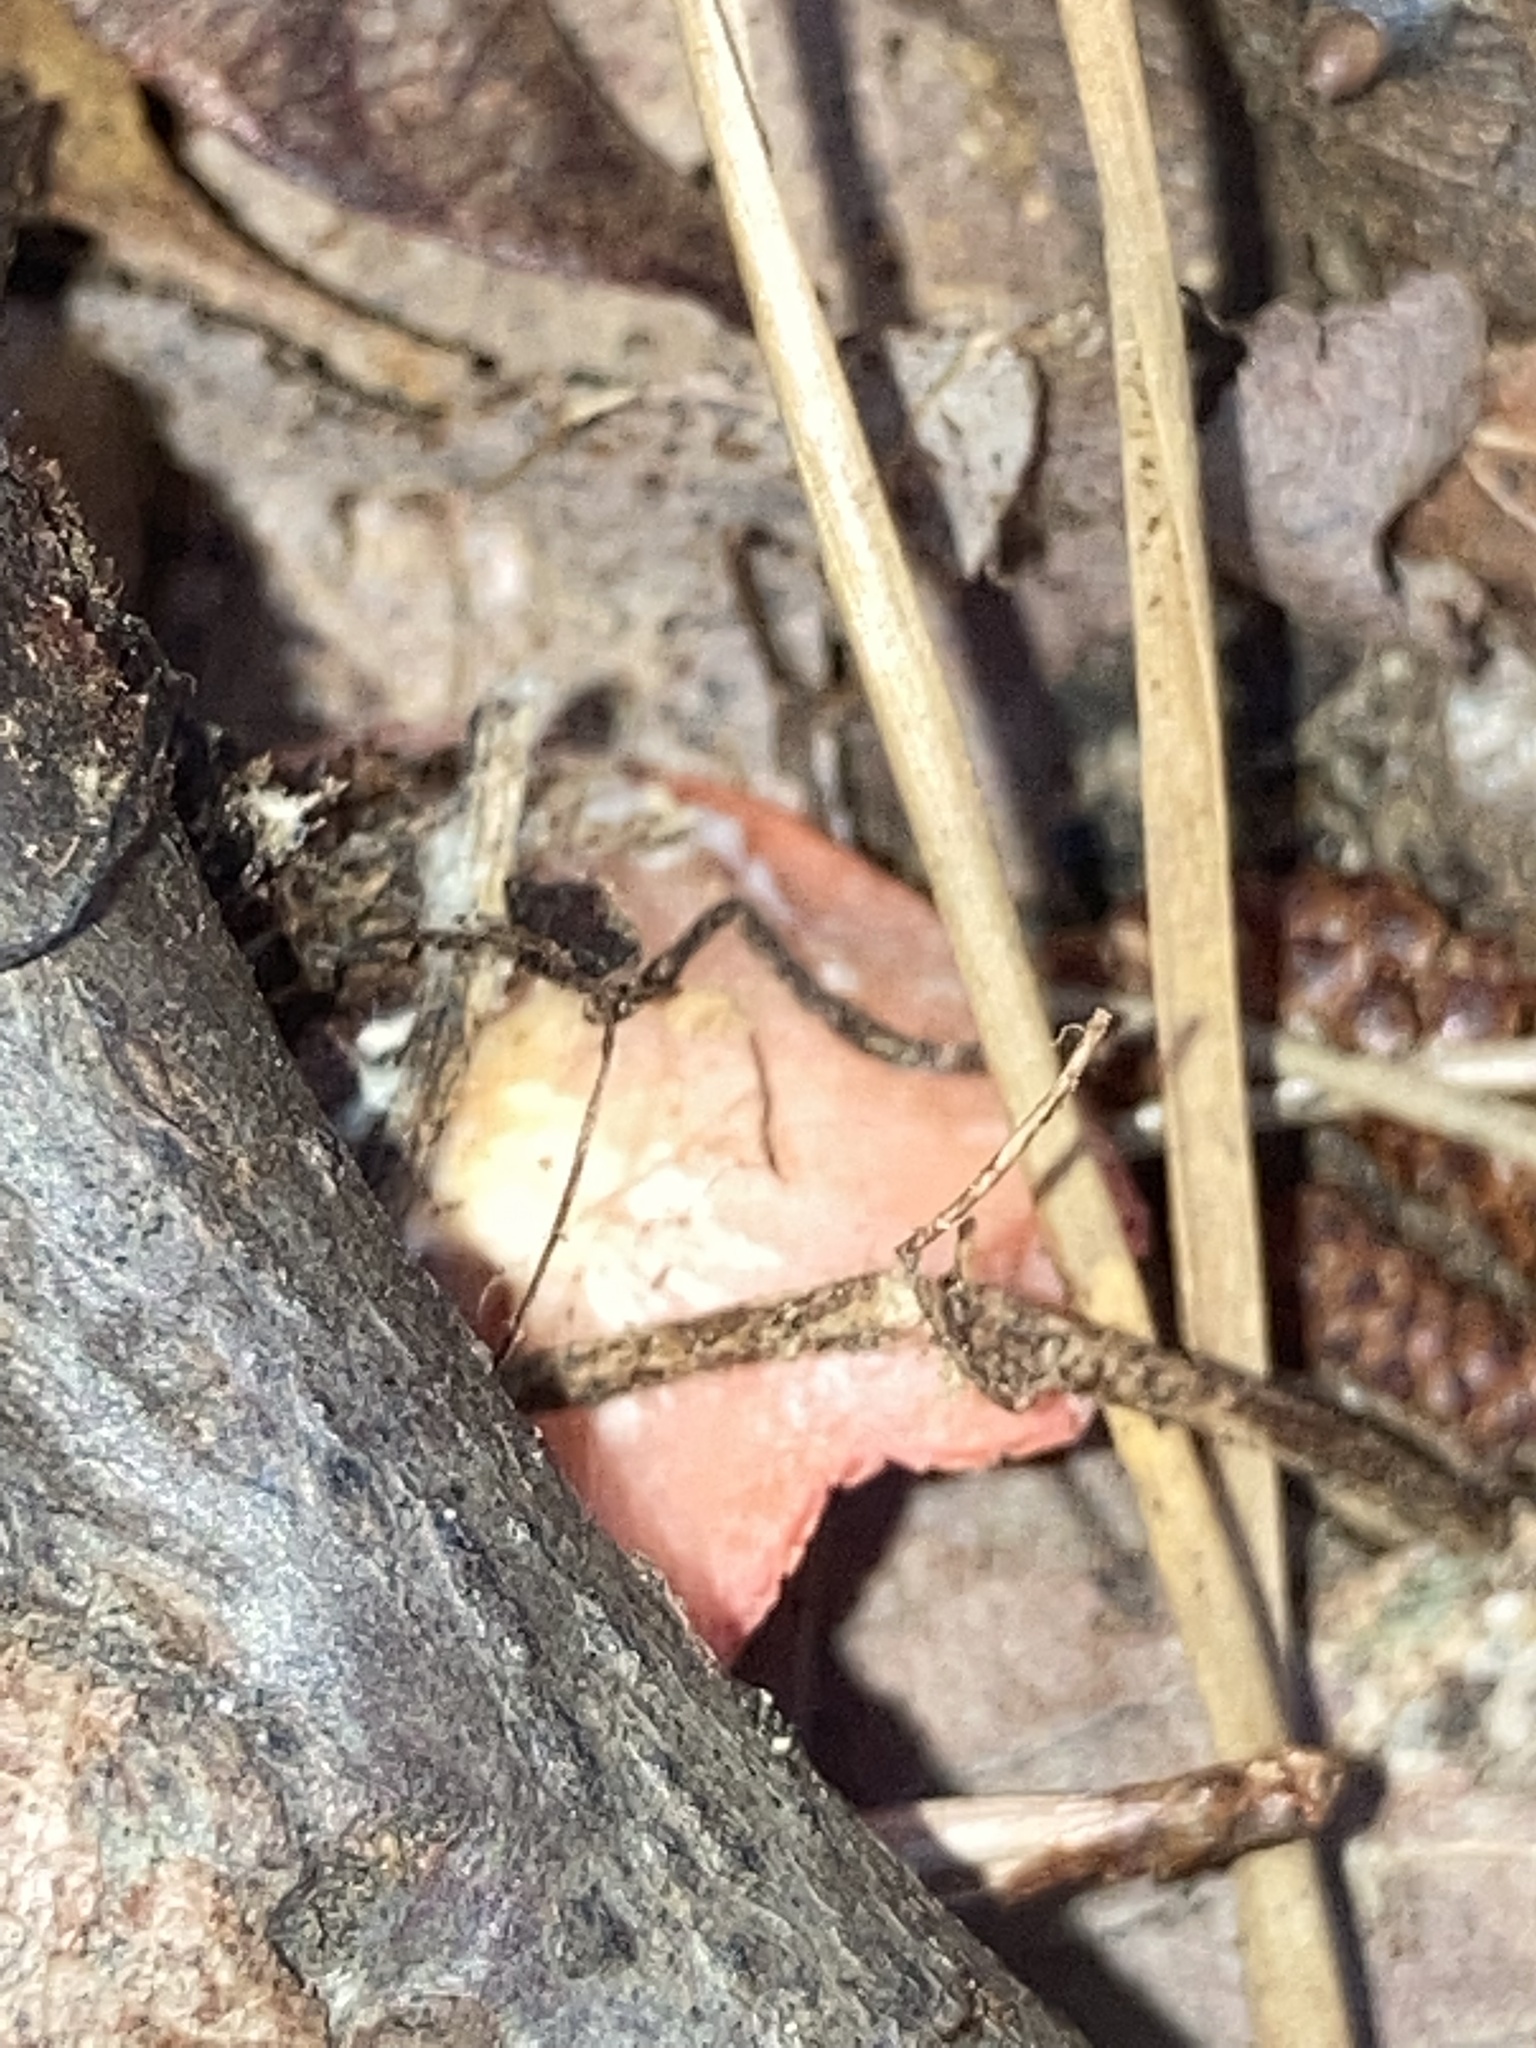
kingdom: Fungi
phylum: Ascomycota
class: Pezizomycetes
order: Pezizales
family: Sarcoscyphaceae
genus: Sarcoscypha
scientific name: Sarcoscypha occidentalis
